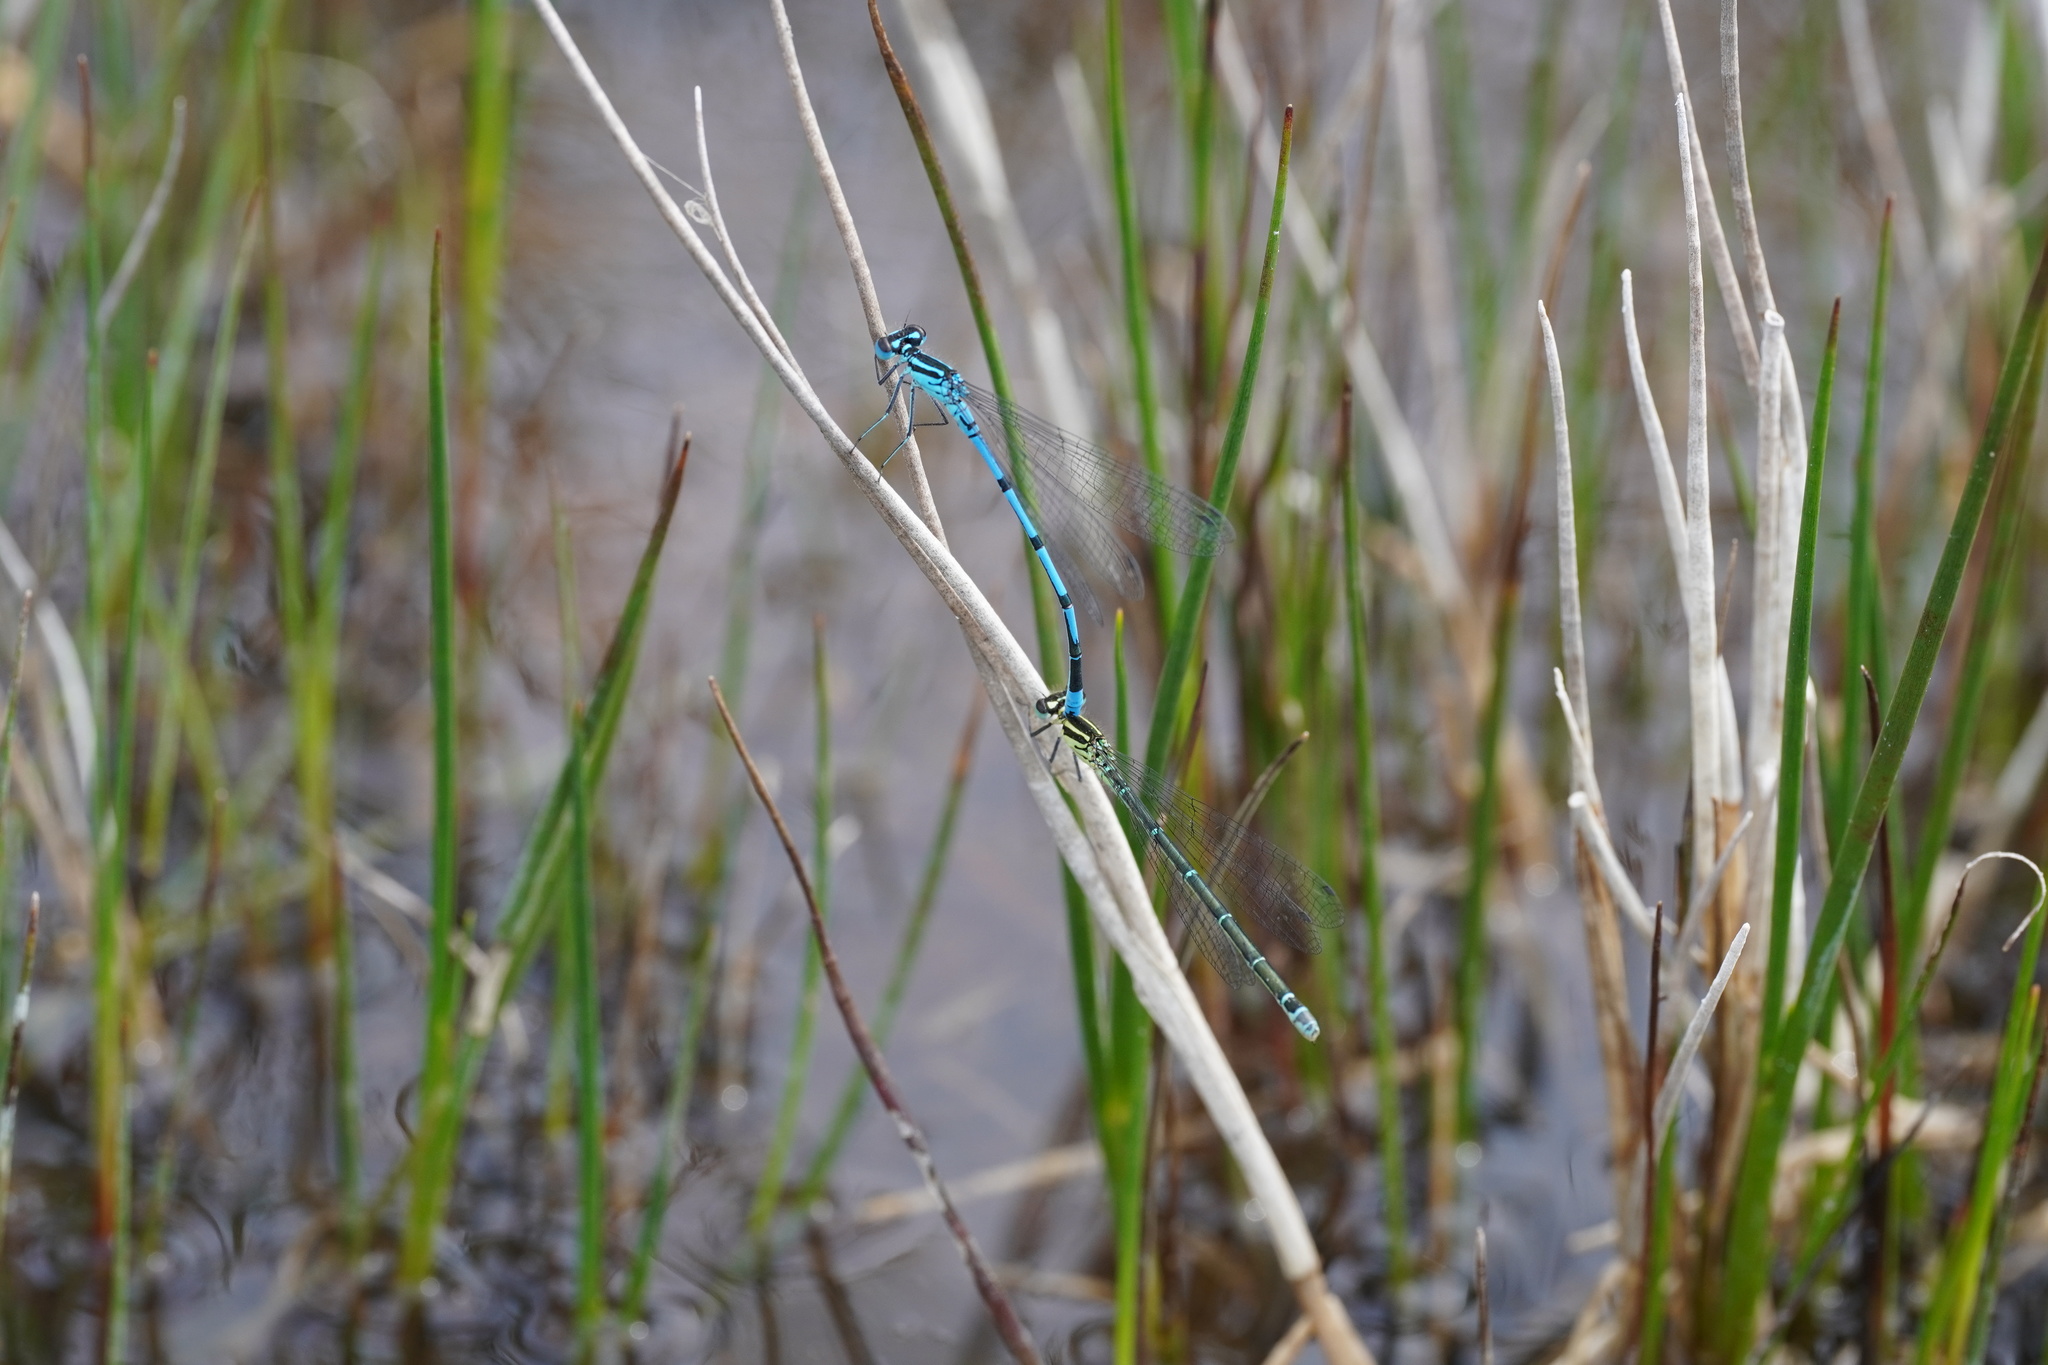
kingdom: Animalia
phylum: Arthropoda
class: Insecta
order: Odonata
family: Coenagrionidae
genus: Coenagrion
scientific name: Coenagrion puella
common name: Azure damselfly
